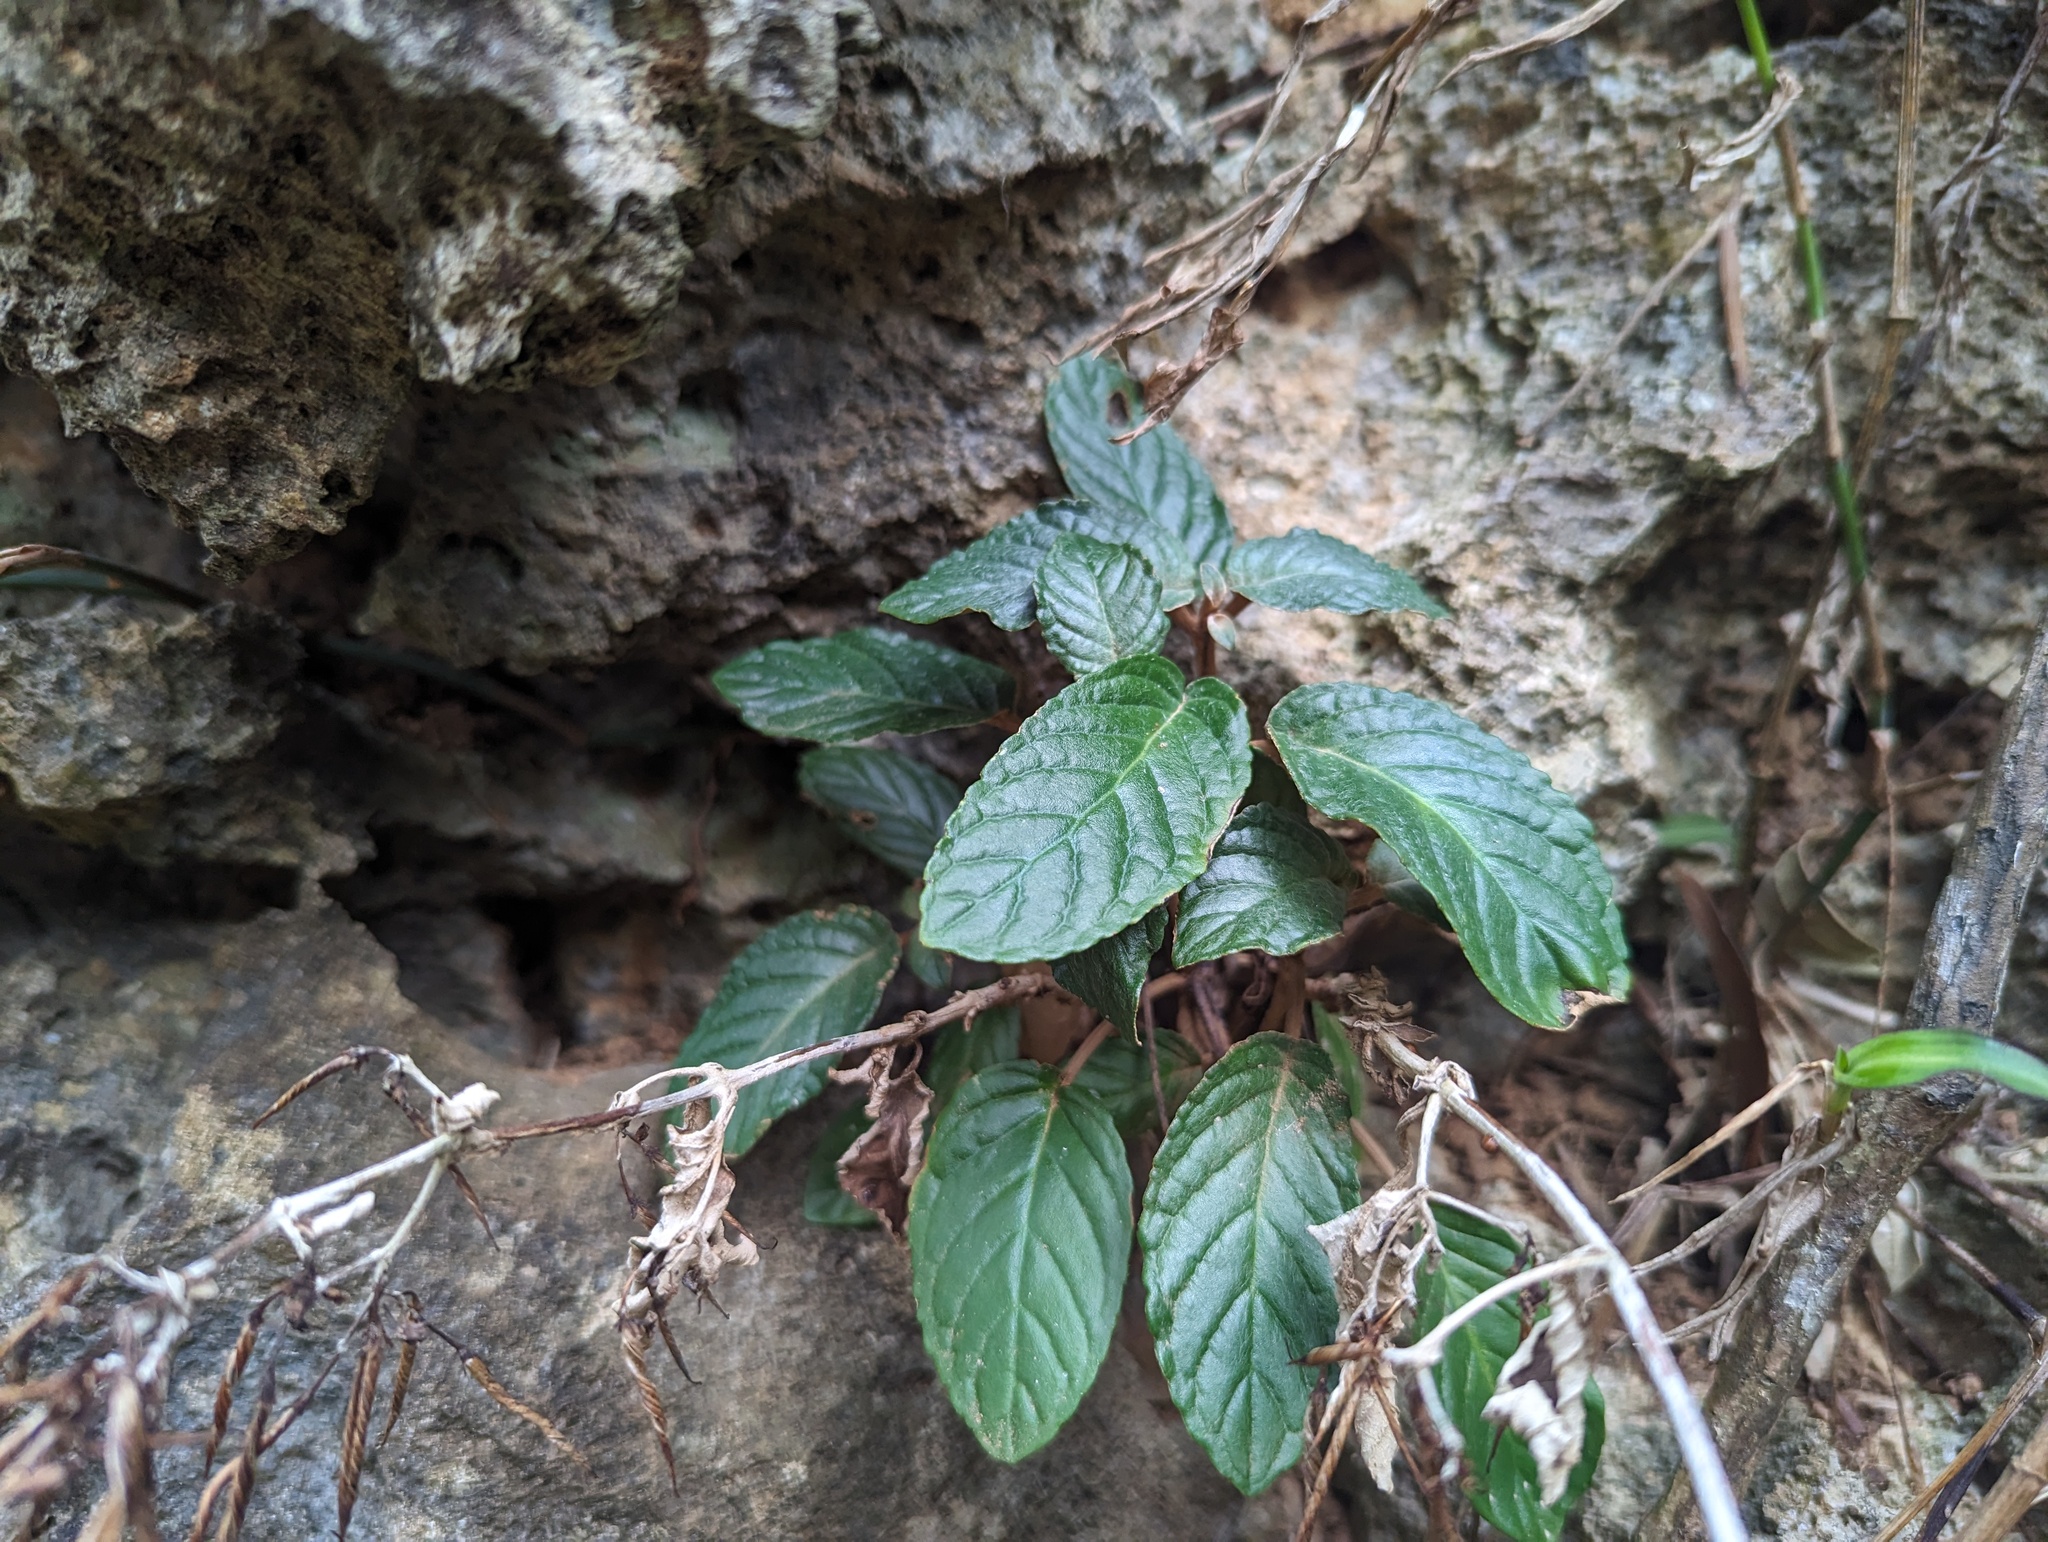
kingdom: Plantae
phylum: Tracheophyta
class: Magnoliopsida
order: Lamiales
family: Gesneriaceae
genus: Paraboea
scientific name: Paraboea swinhoei
